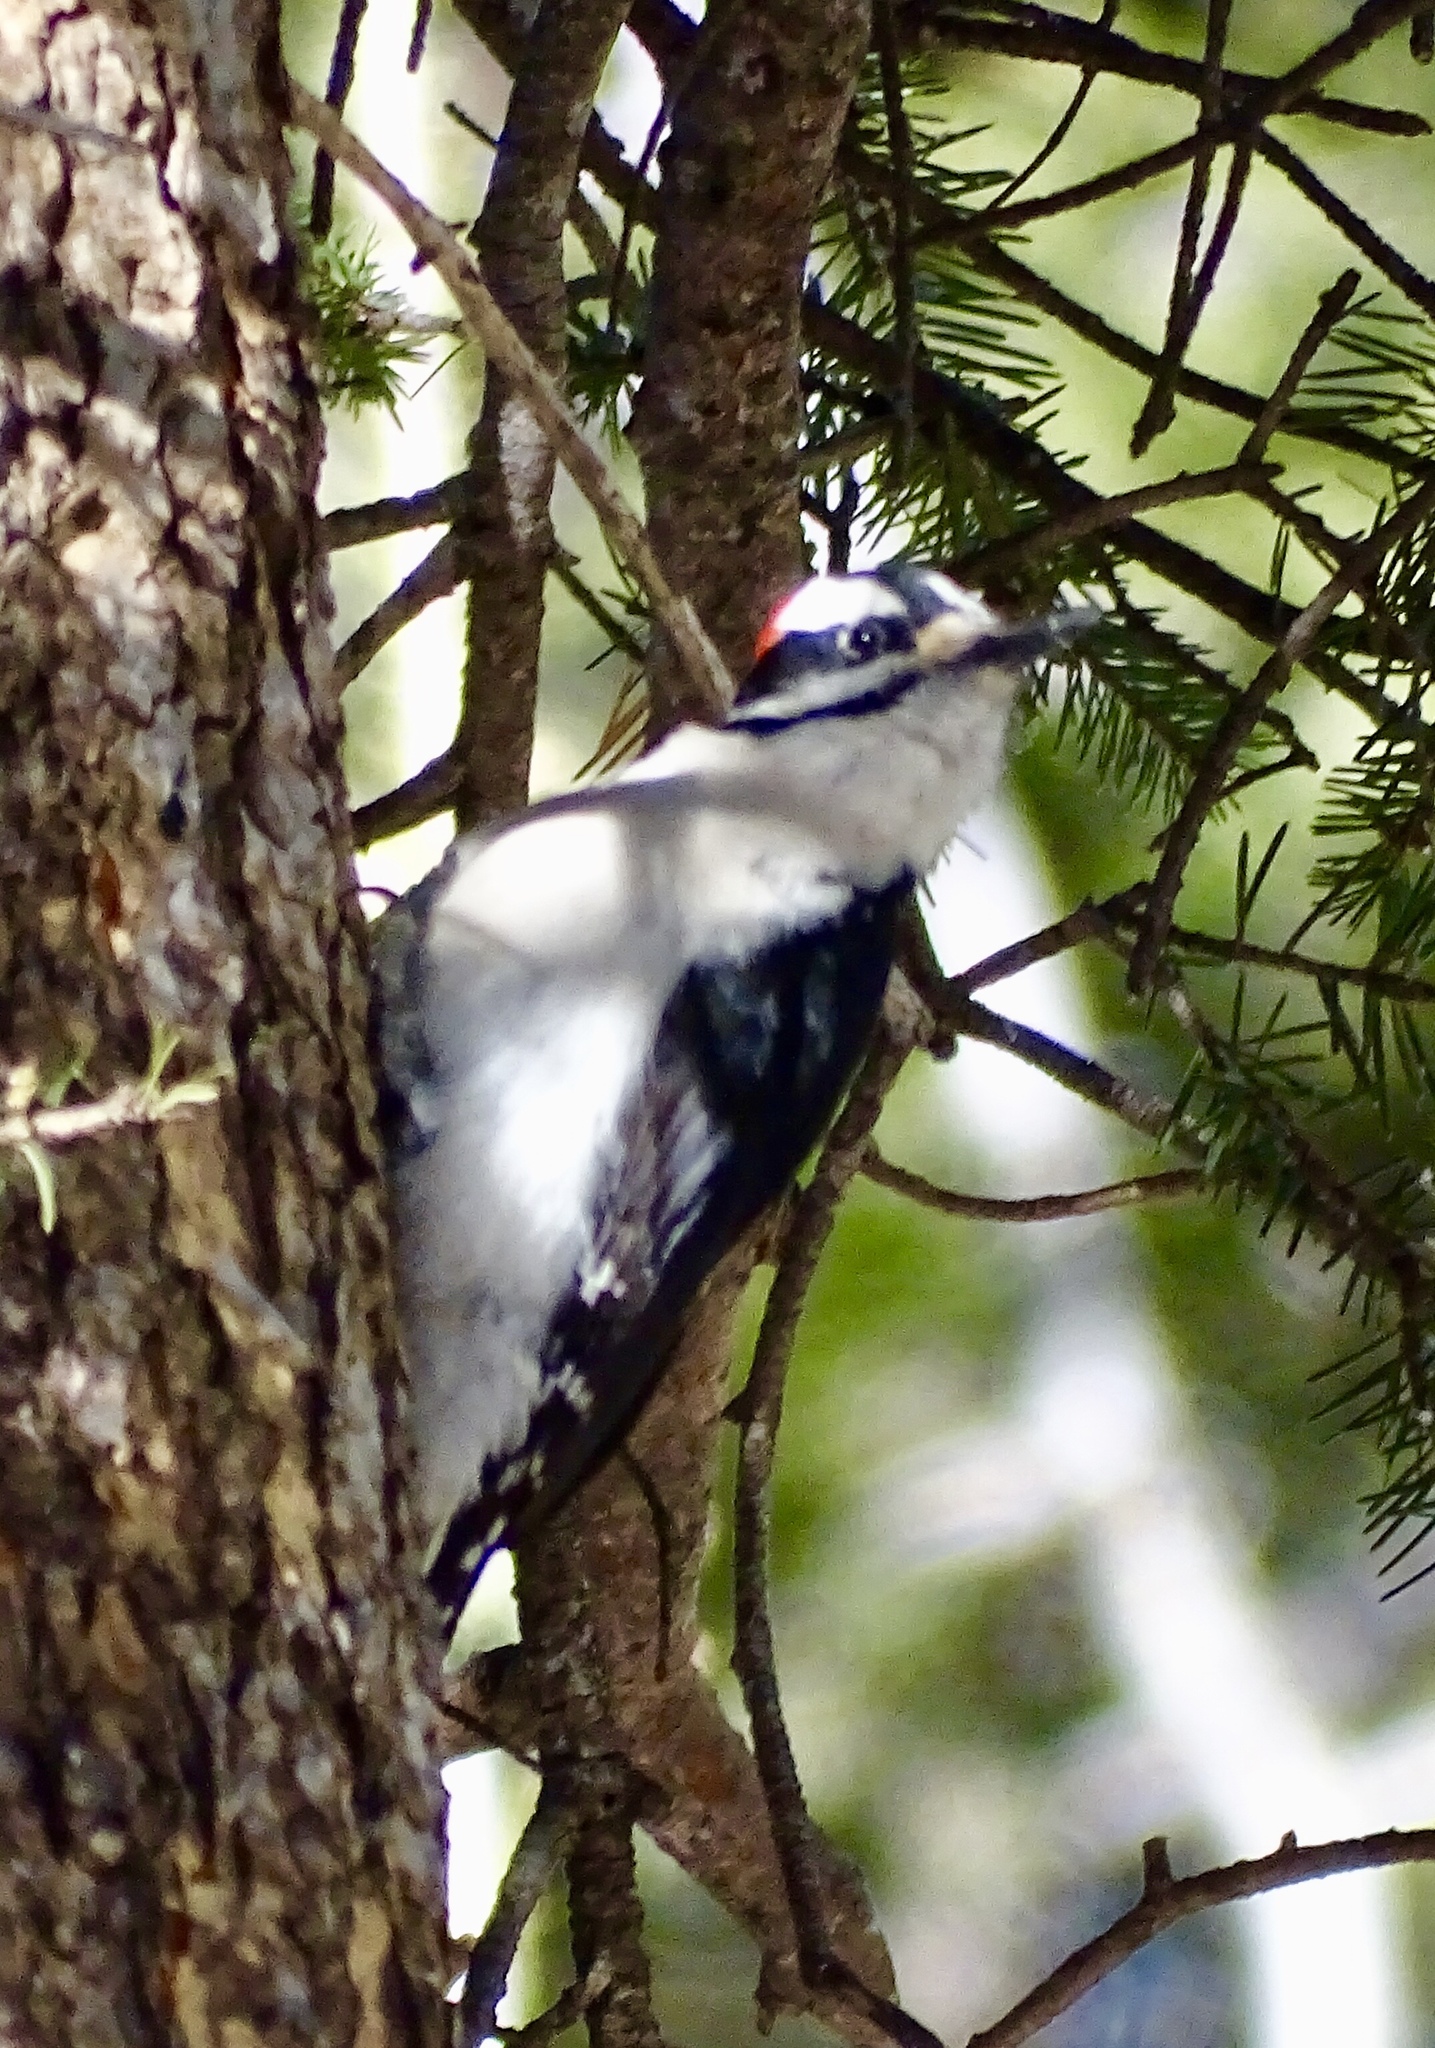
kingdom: Animalia
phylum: Chordata
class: Aves
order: Piciformes
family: Picidae
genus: Leuconotopicus
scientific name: Leuconotopicus villosus
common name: Hairy woodpecker
